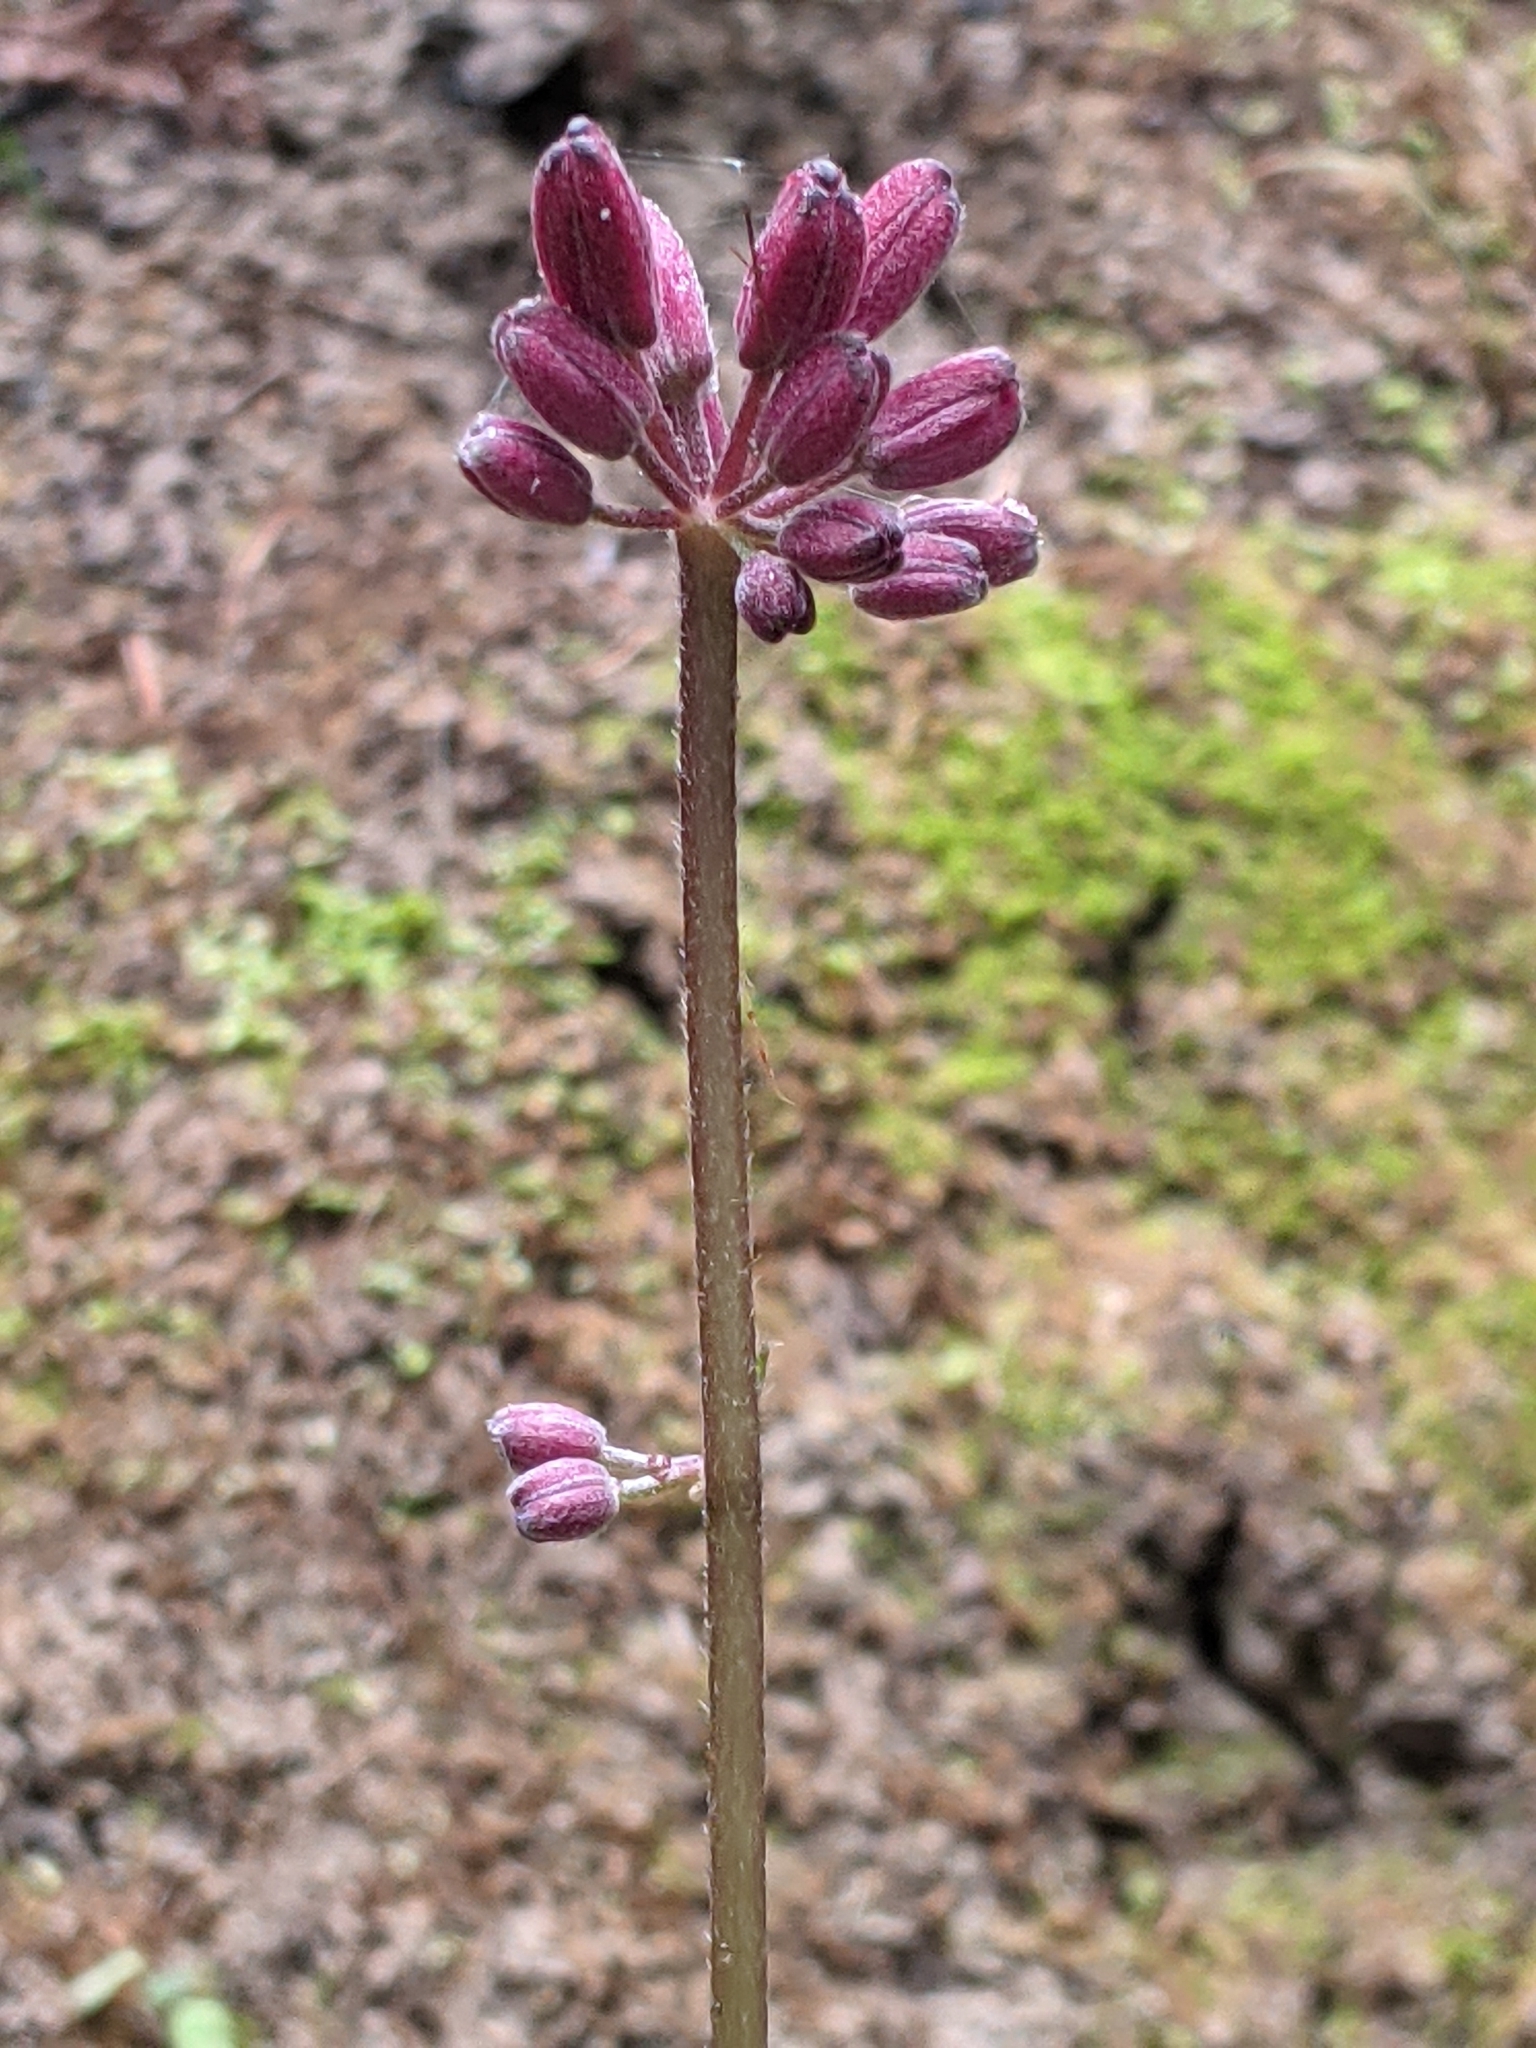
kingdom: Plantae
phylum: Tracheophyta
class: Liliopsida
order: Liliales
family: Liliaceae
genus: Clintonia
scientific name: Clintonia andrewsiana
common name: Red clintonia
